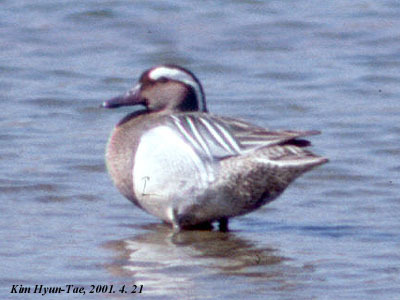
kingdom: Animalia
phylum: Chordata
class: Aves
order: Anseriformes
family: Anatidae
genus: Spatula
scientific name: Spatula querquedula
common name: Garganey
